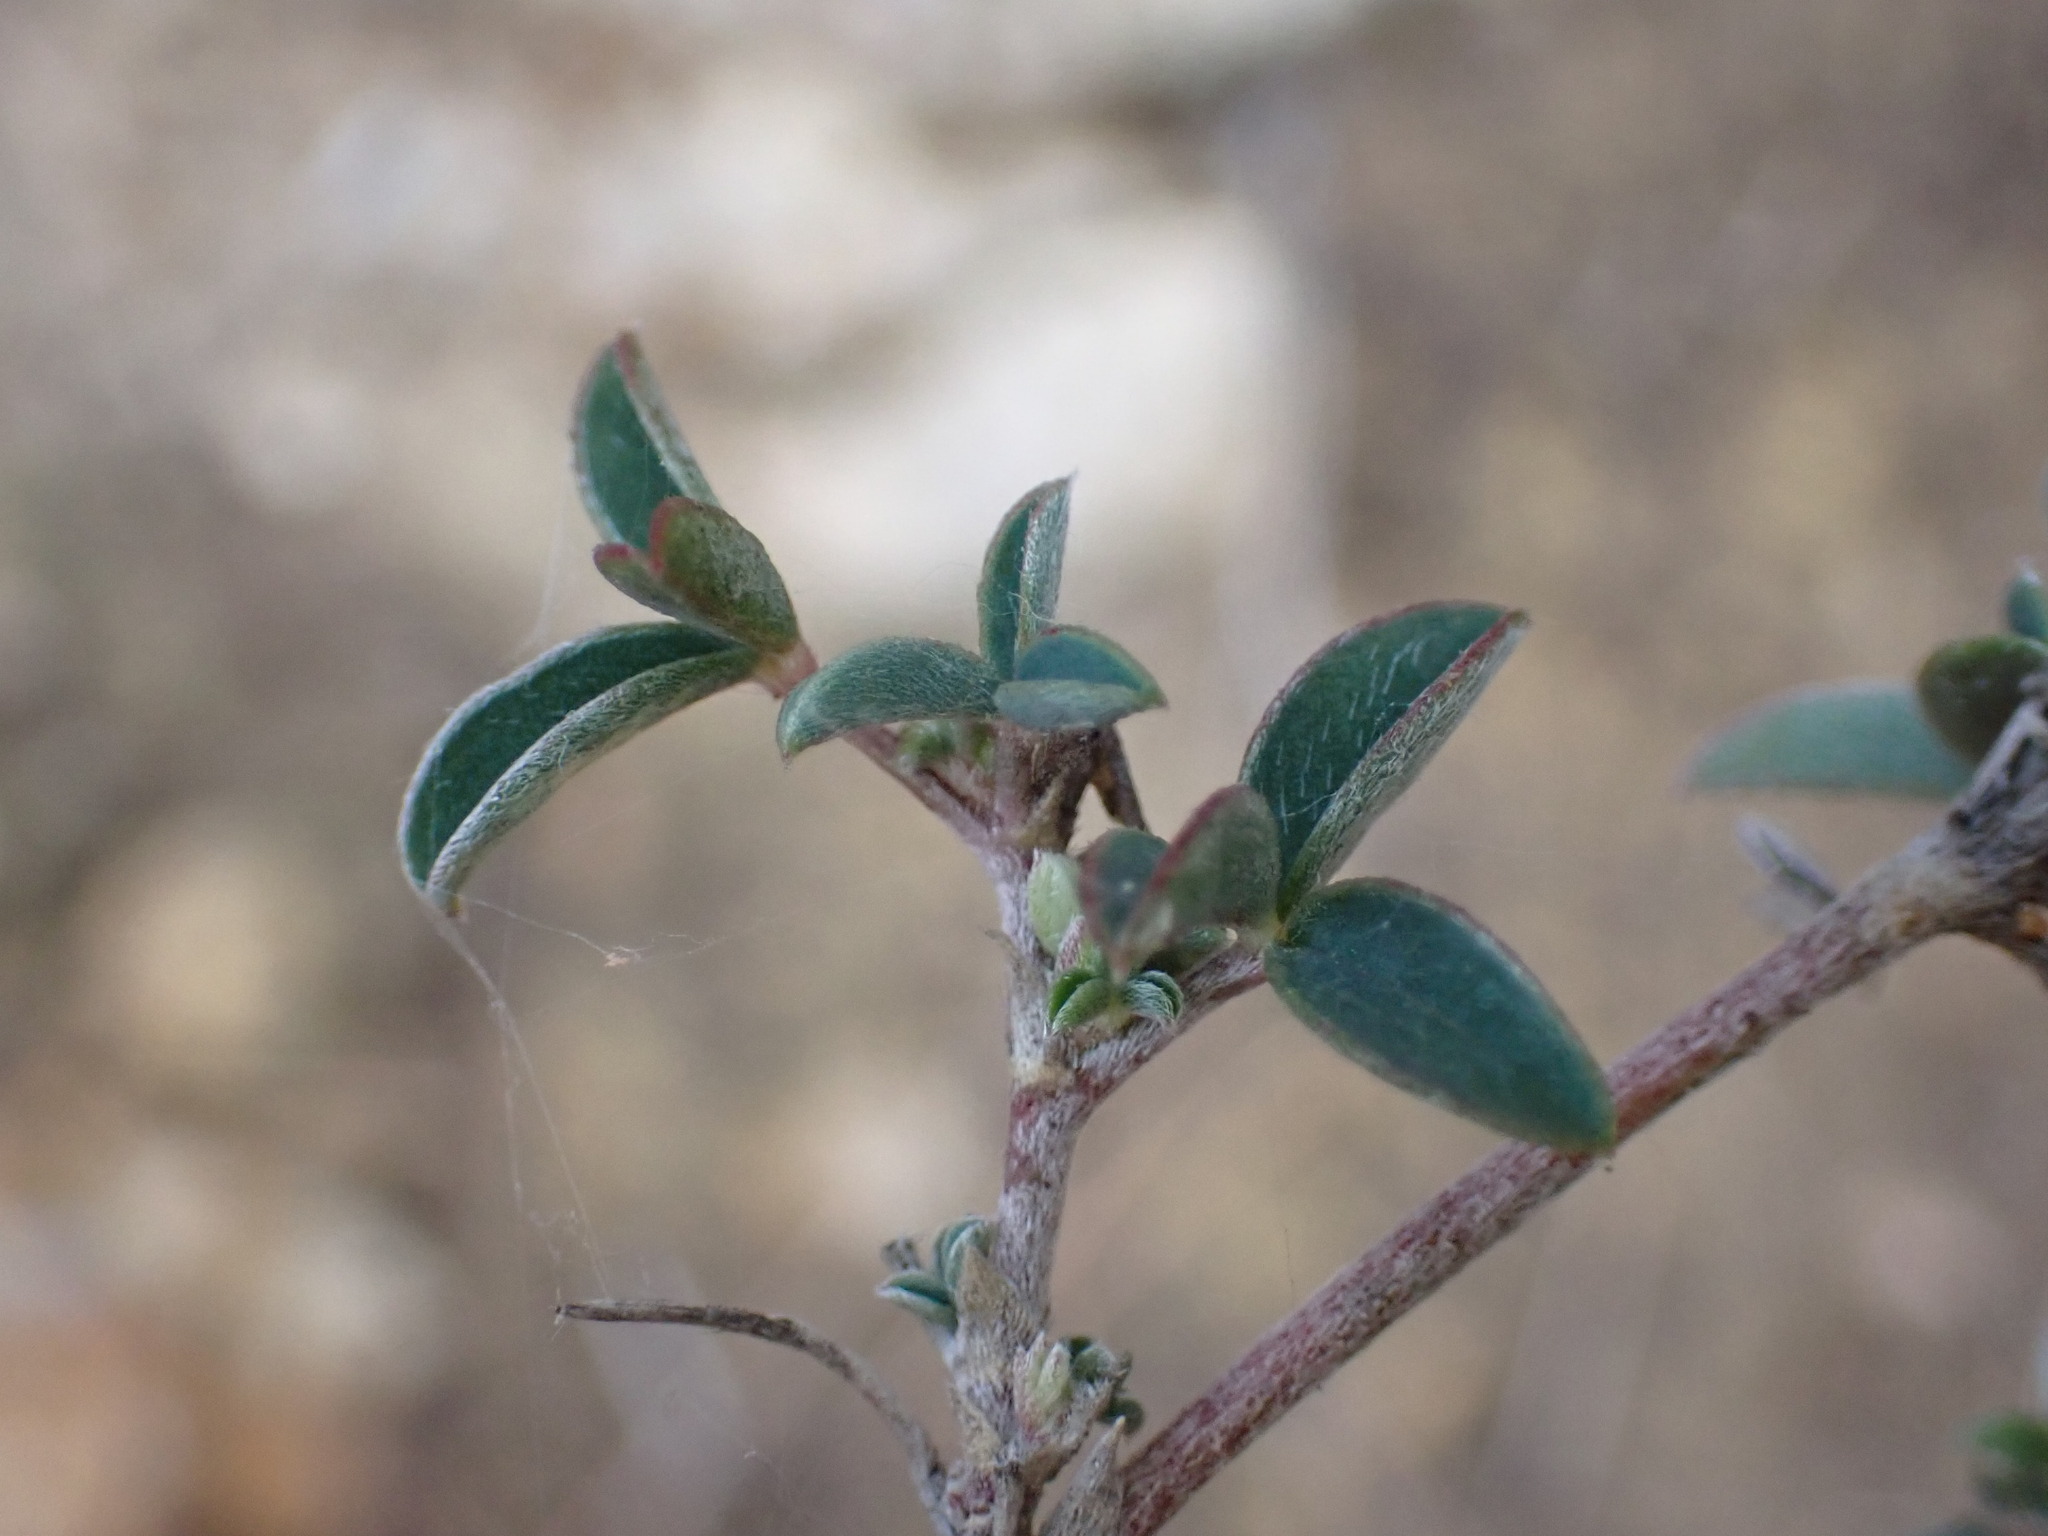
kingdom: Plantae
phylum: Tracheophyta
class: Magnoliopsida
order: Fabales
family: Fabaceae
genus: Argyrolobium
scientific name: Argyrolobium zanonii
